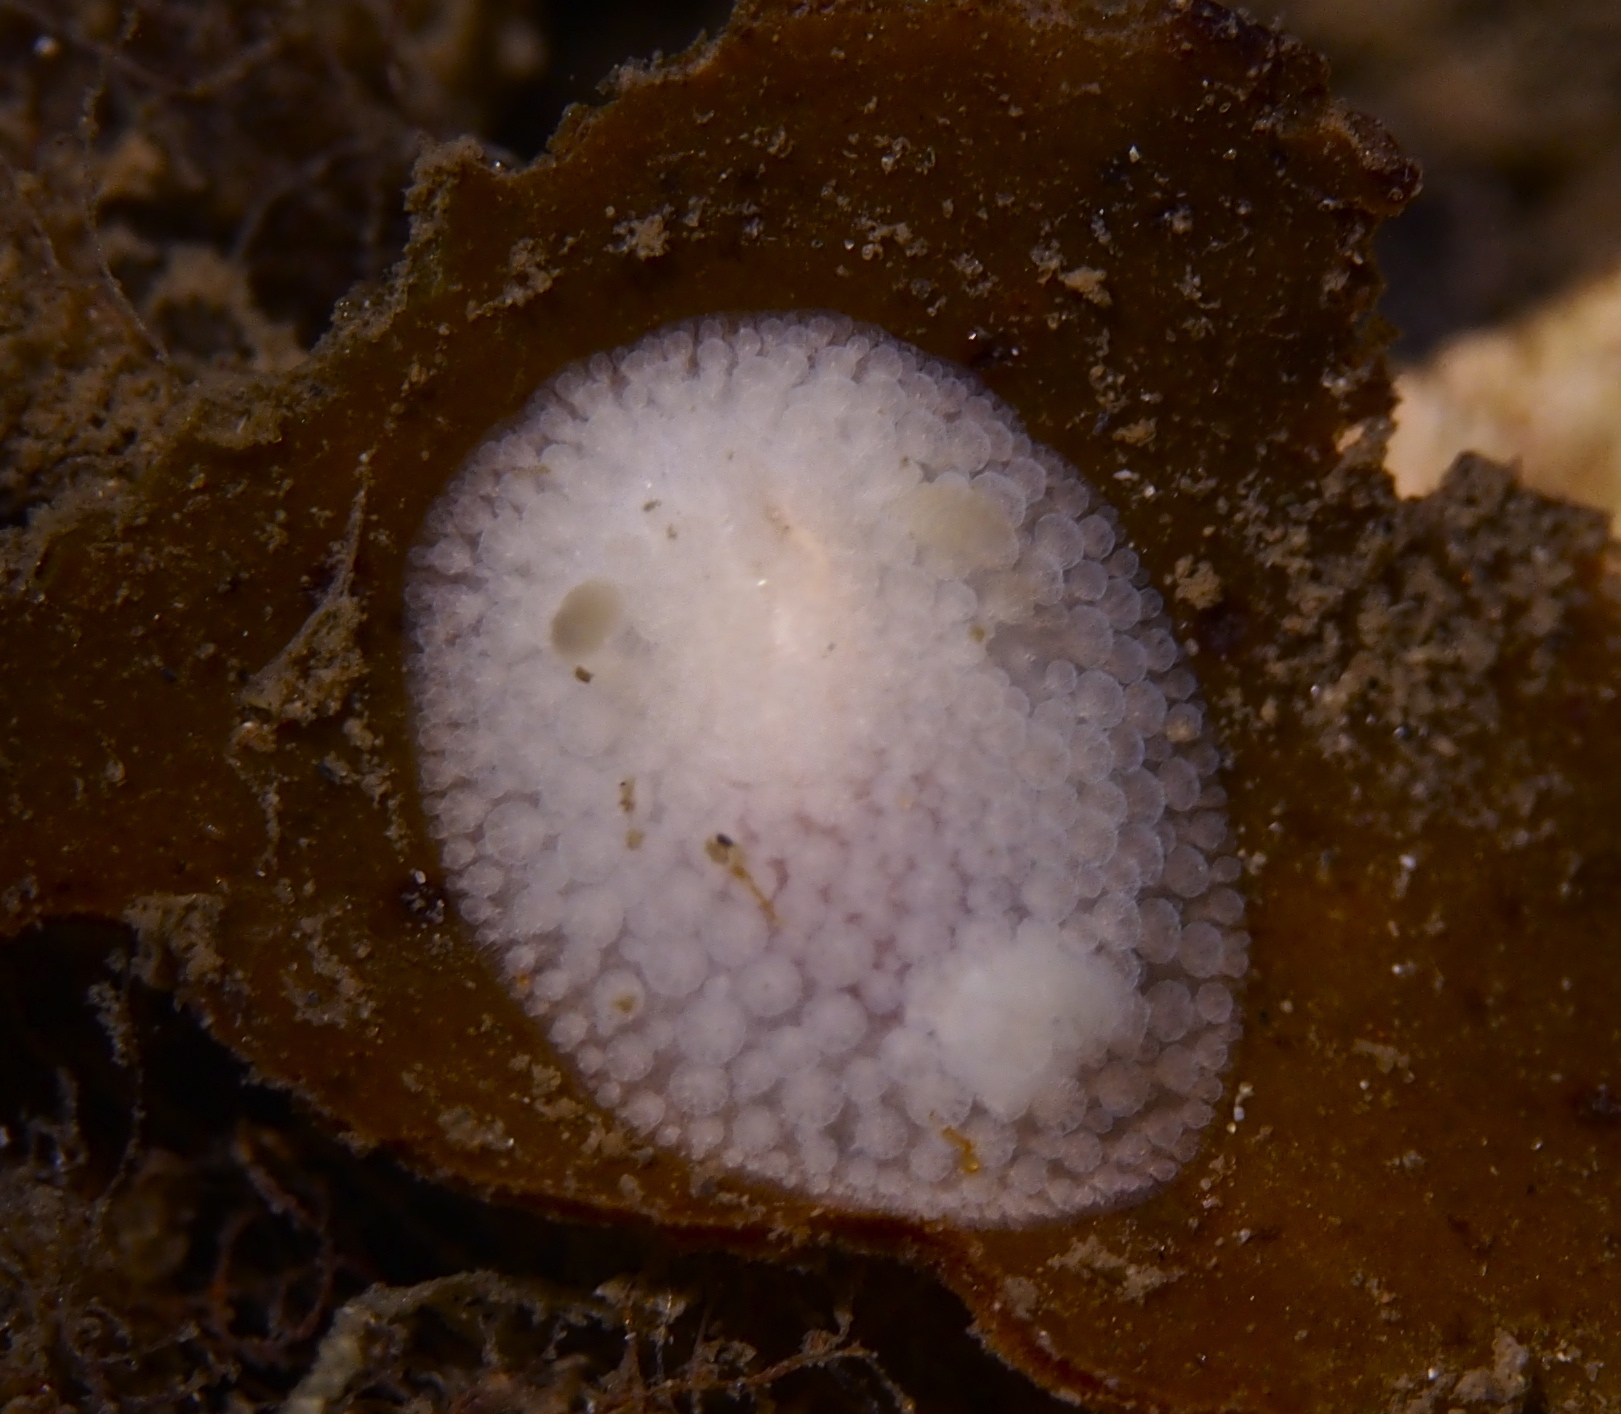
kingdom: Animalia
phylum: Mollusca
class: Gastropoda
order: Nudibranchia
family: Onchidorididae
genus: Onchidoris
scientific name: Onchidoris muricata
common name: Rough doris
